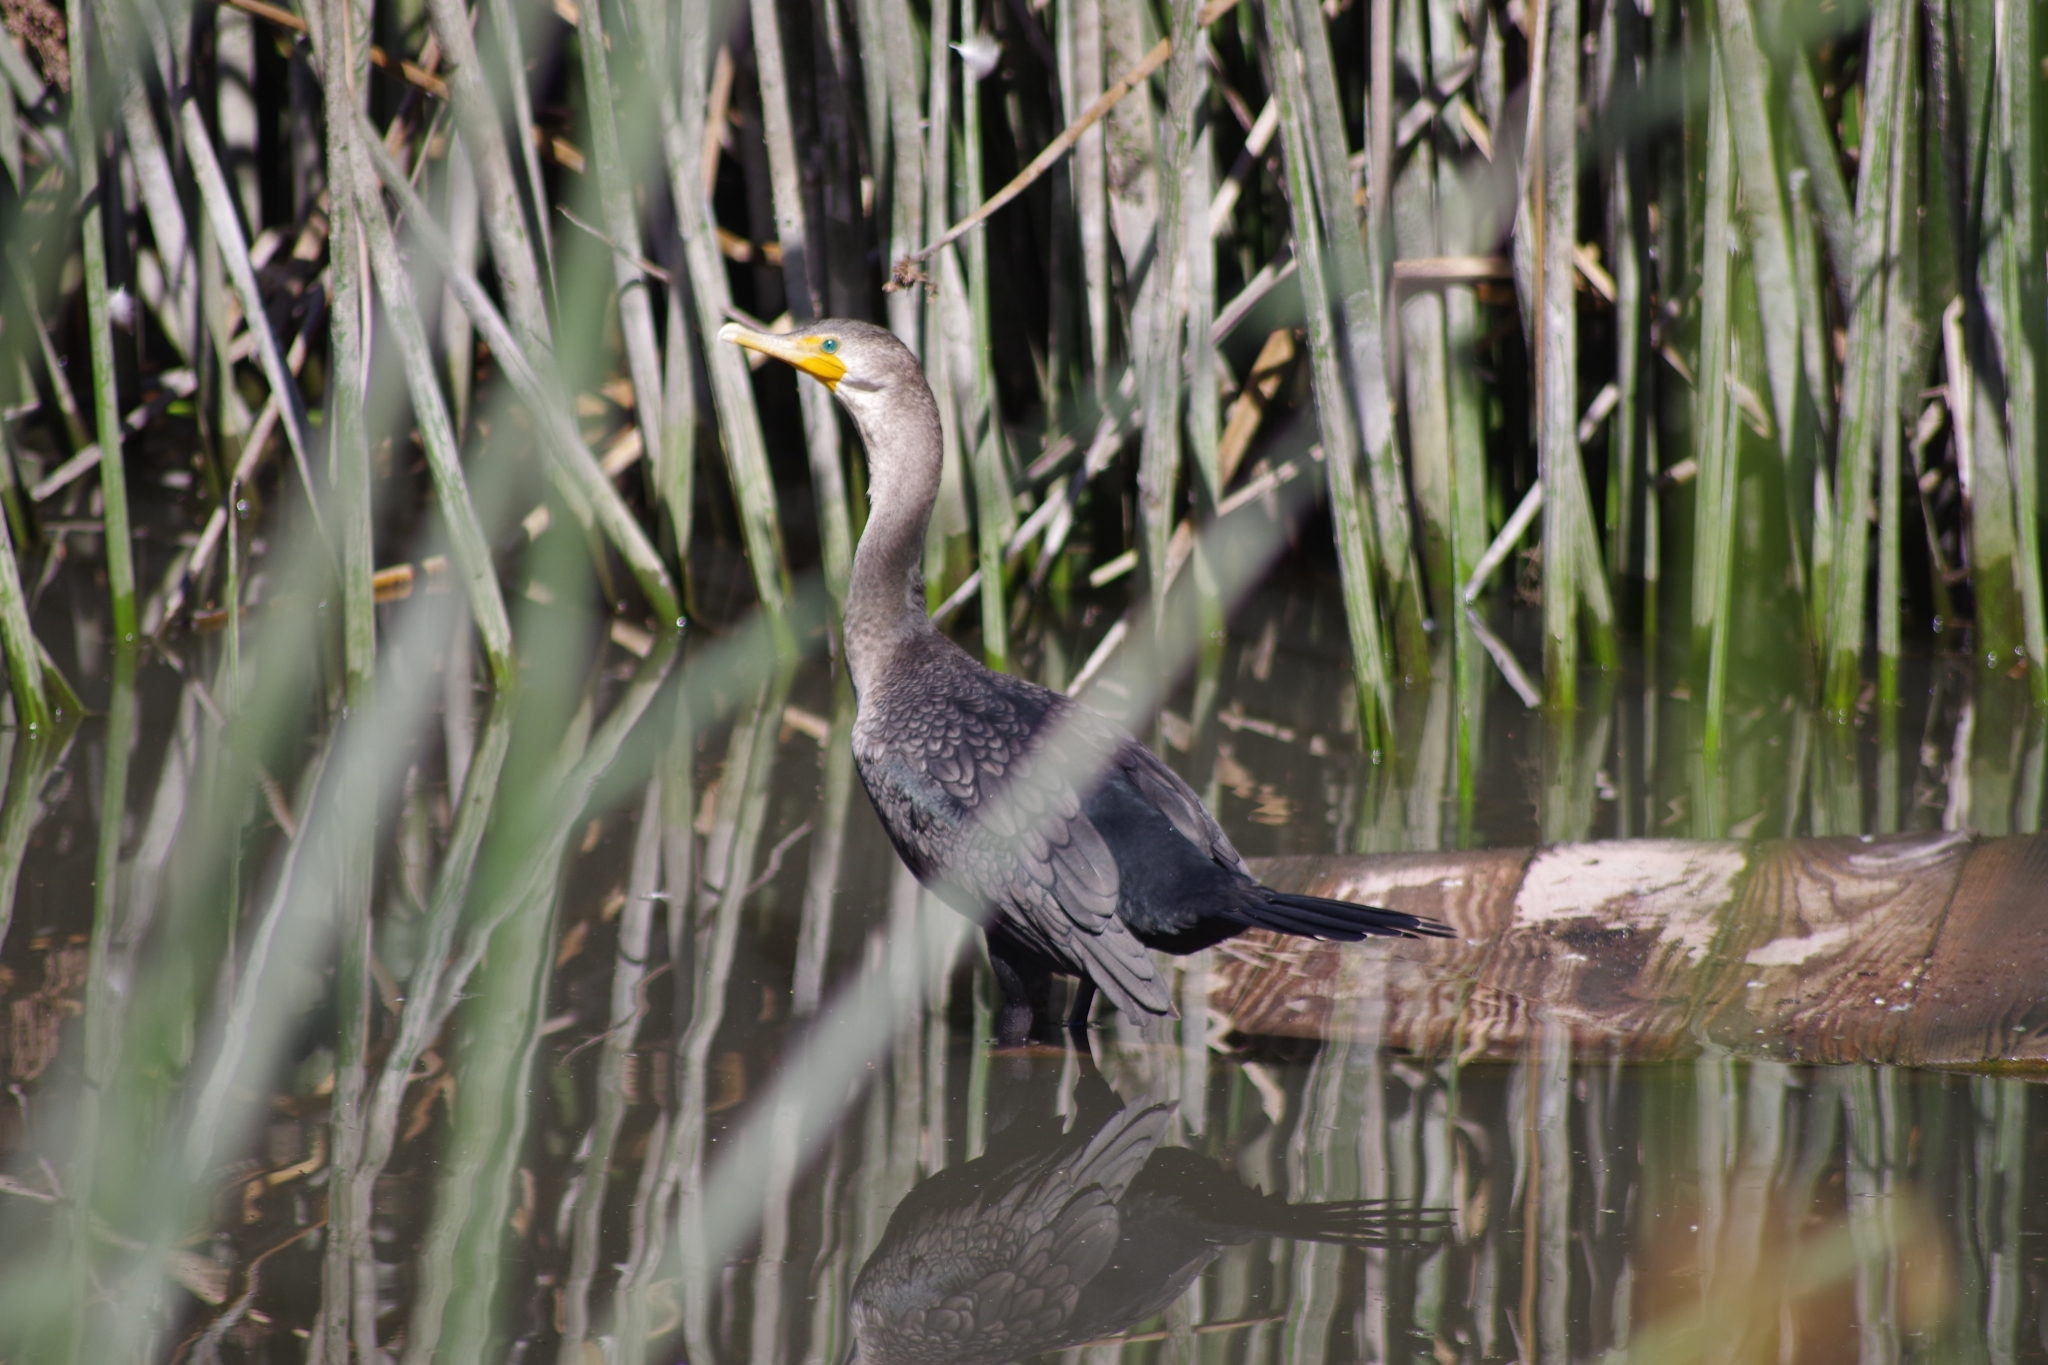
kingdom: Animalia
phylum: Chordata
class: Aves
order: Suliformes
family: Phalacrocoracidae
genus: Phalacrocorax
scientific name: Phalacrocorax auritus
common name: Double-crested cormorant
